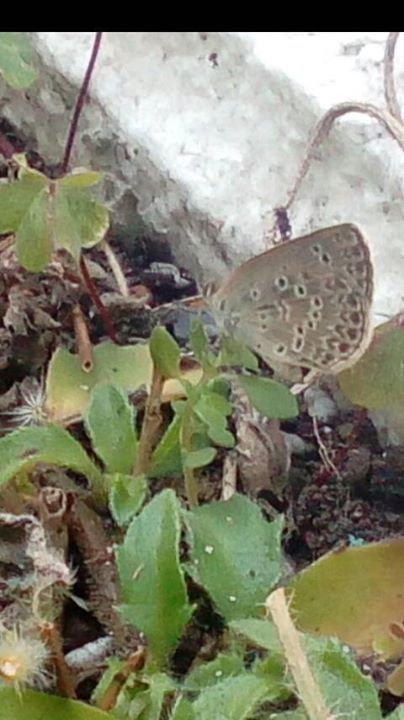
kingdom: Animalia
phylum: Arthropoda
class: Insecta
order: Lepidoptera
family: Lycaenidae
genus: Pseudozizeeria
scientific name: Pseudozizeeria maha
